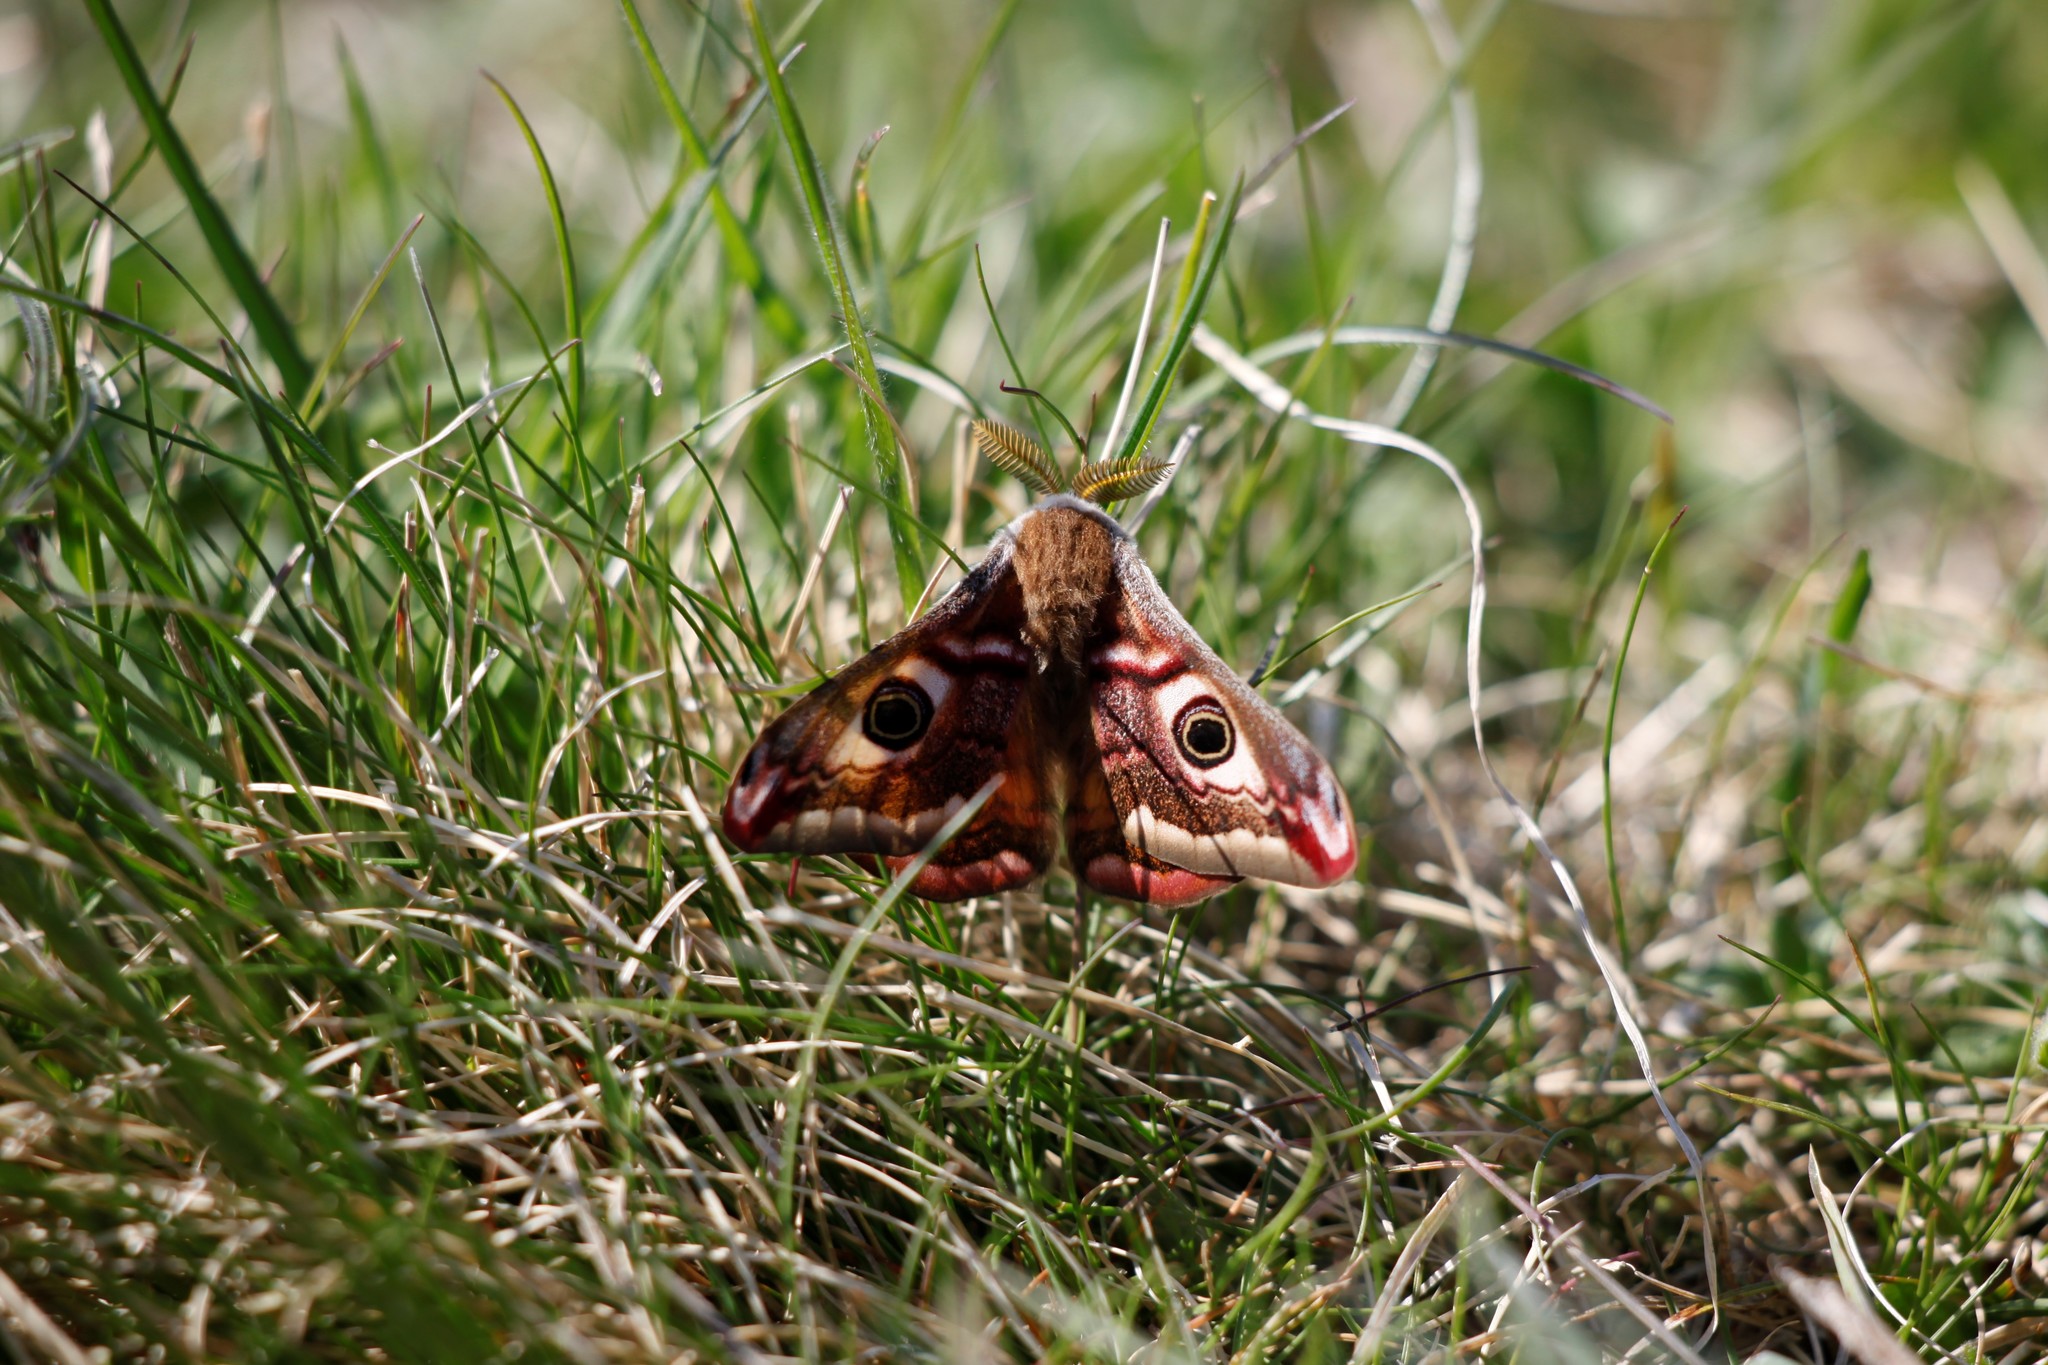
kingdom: Animalia
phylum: Arthropoda
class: Insecta
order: Lepidoptera
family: Saturniidae
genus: Saturnia
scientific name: Saturnia pavonia
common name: Emperor moth
